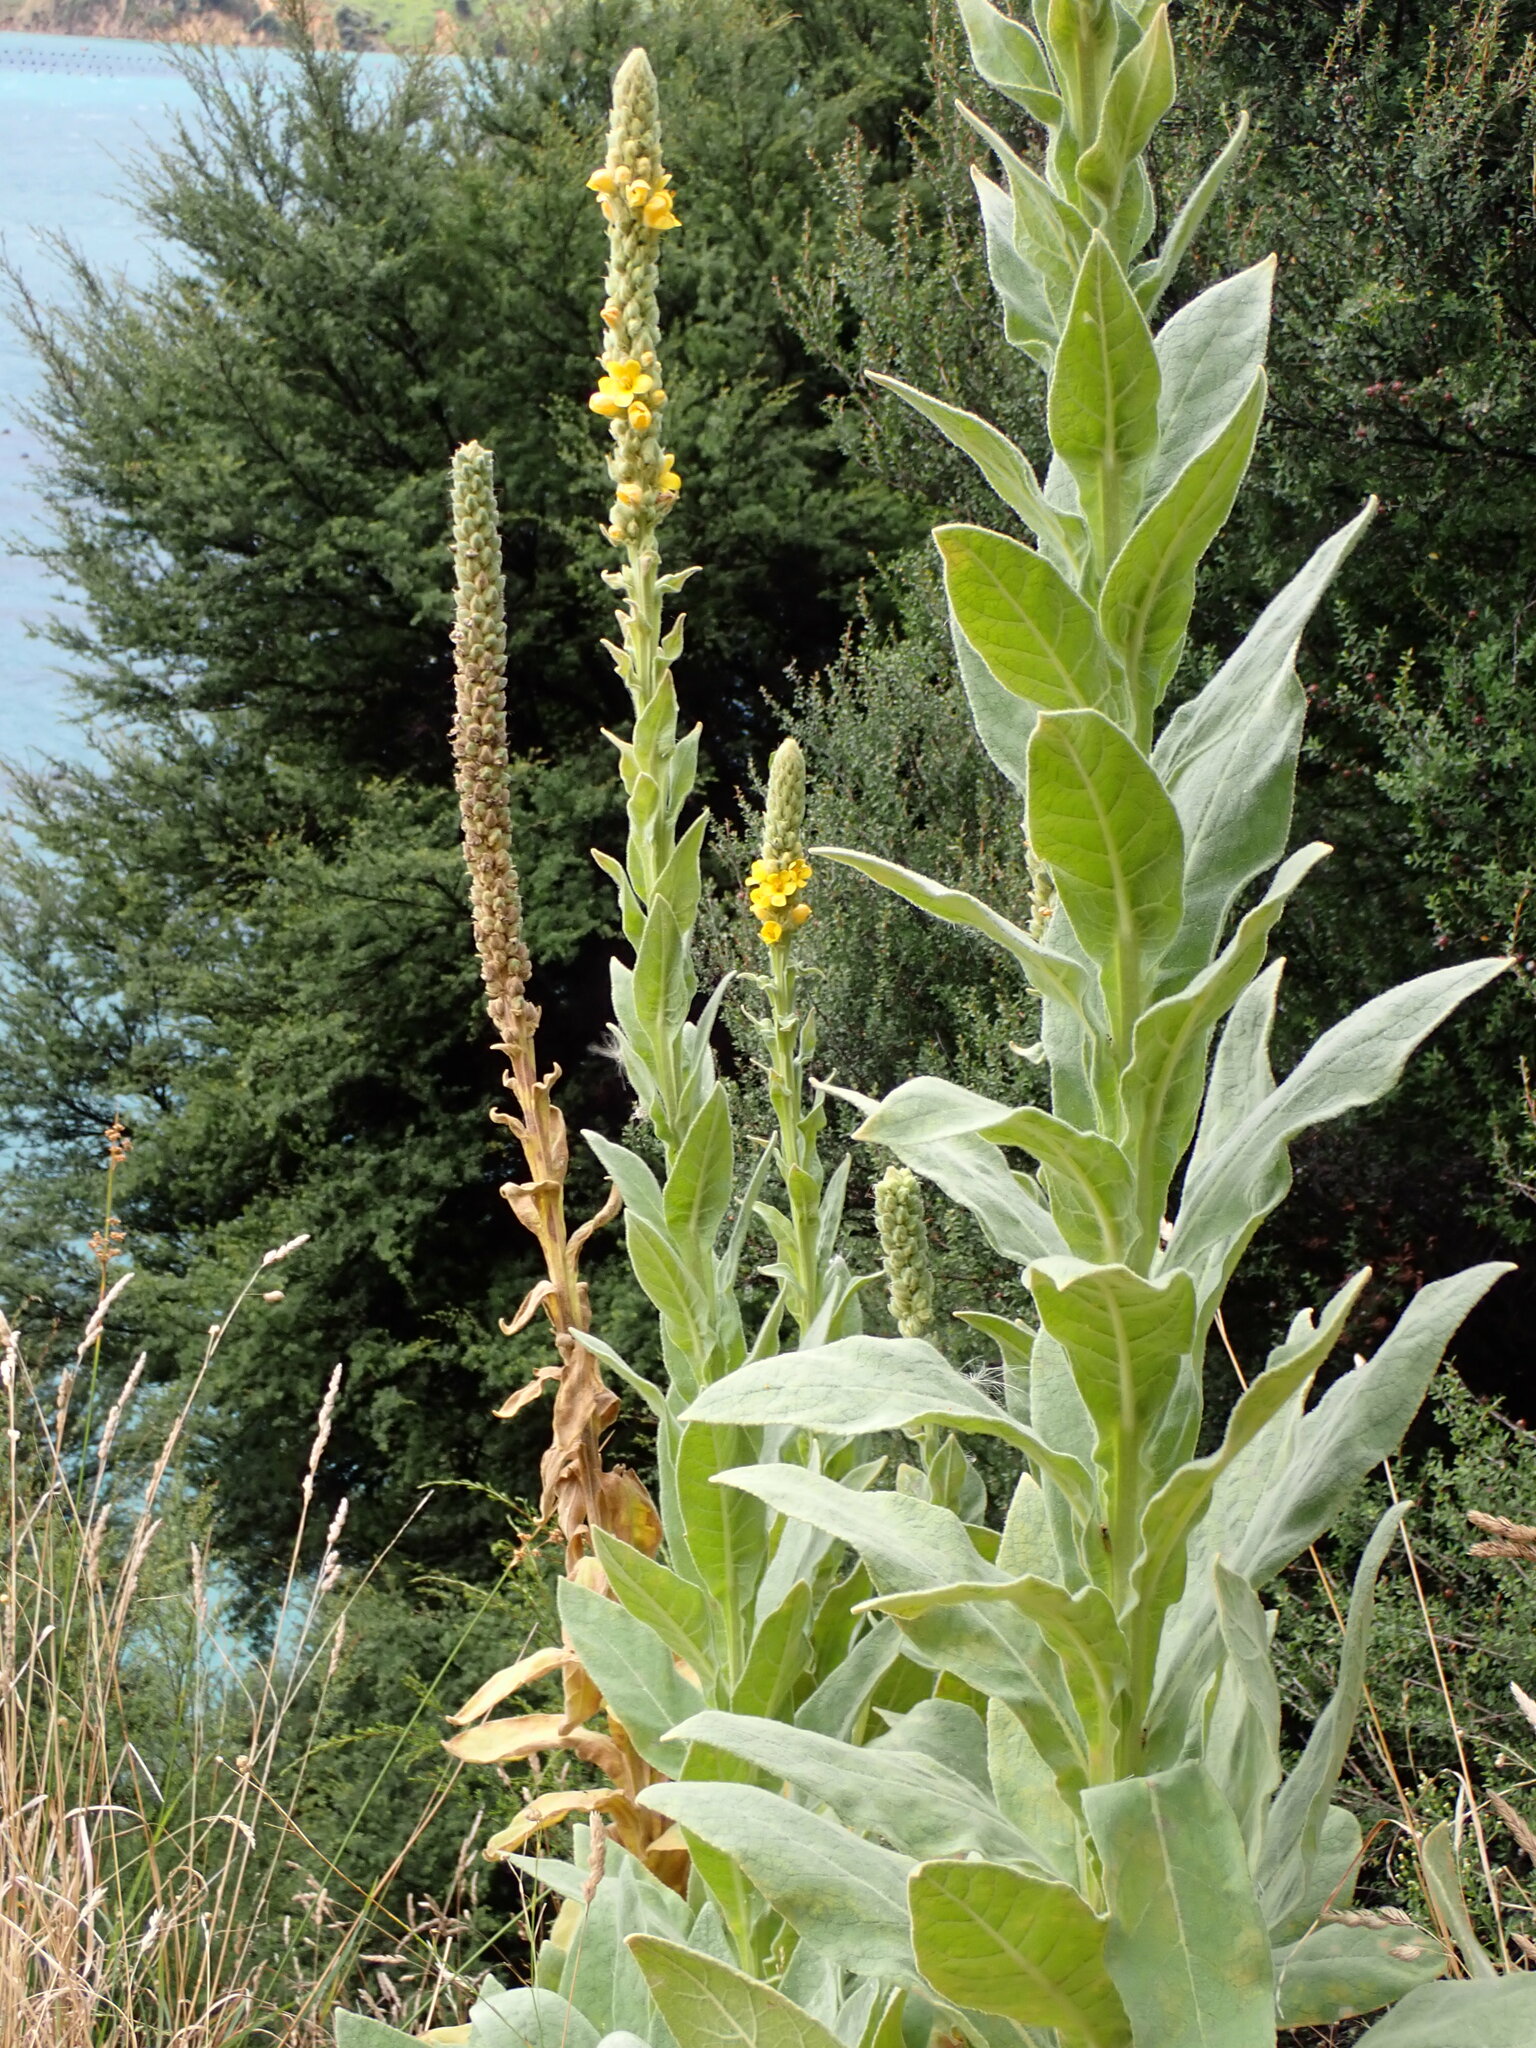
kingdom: Plantae
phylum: Tracheophyta
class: Magnoliopsida
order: Lamiales
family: Scrophulariaceae
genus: Verbascum
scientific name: Verbascum thapsus
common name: Common mullein
